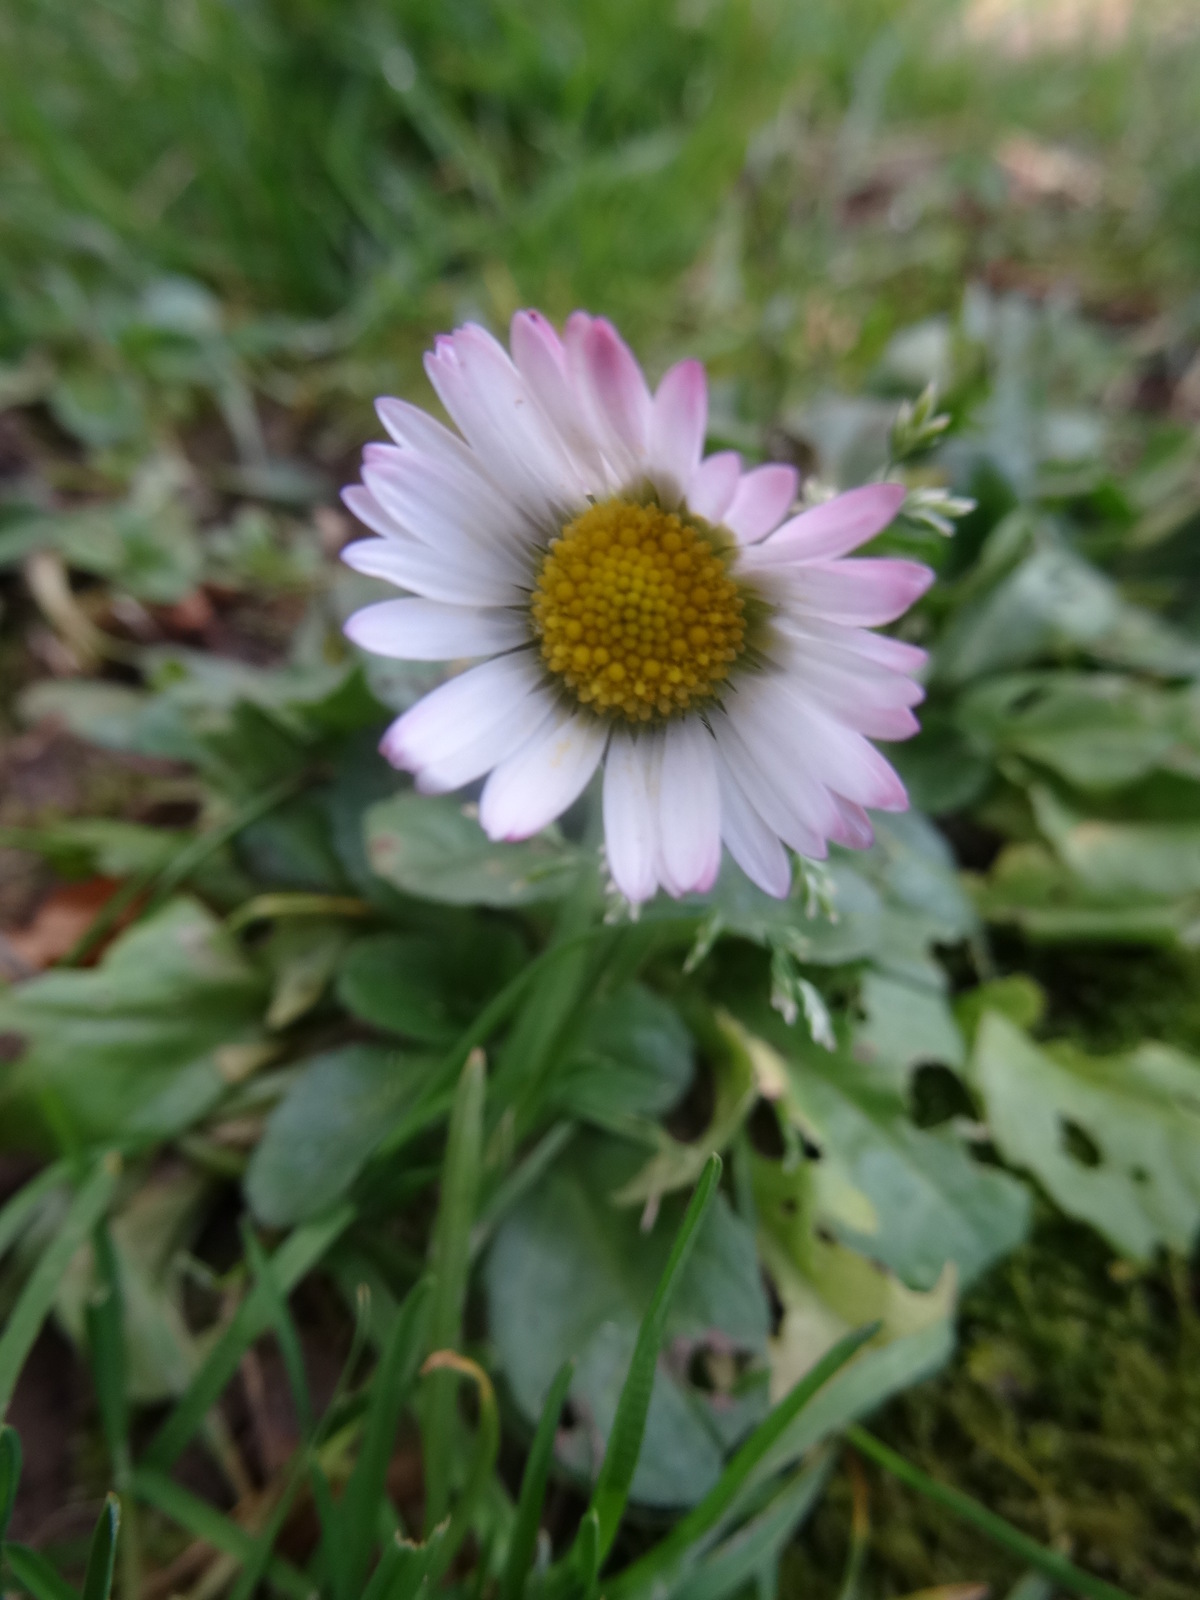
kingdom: Plantae
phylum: Tracheophyta
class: Magnoliopsida
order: Asterales
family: Asteraceae
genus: Bellis
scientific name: Bellis perennis
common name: Lawndaisy
